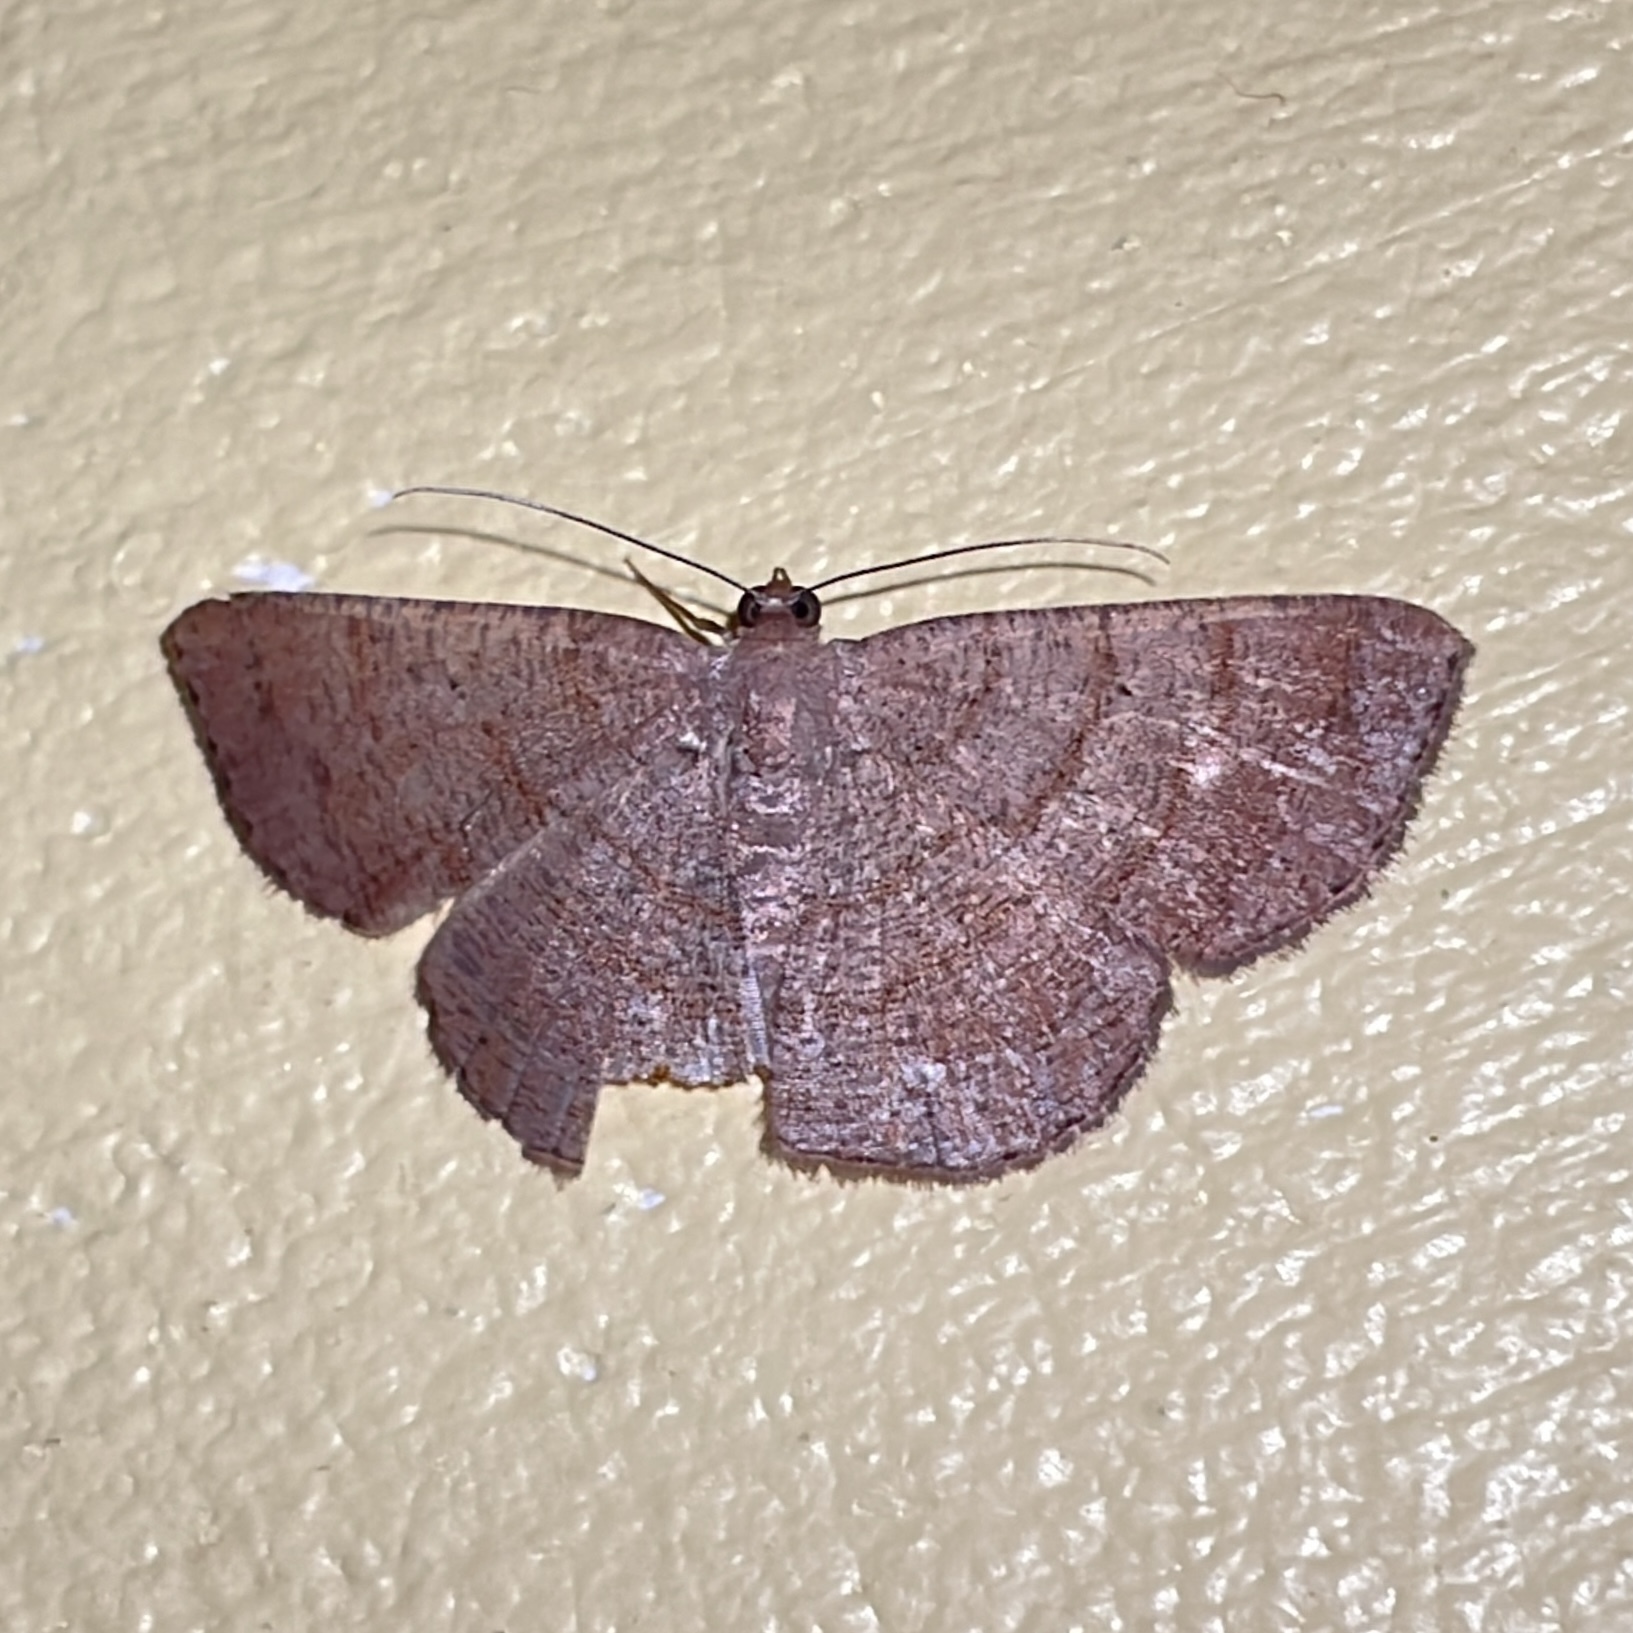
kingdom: Animalia
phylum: Arthropoda
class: Insecta
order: Lepidoptera
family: Geometridae
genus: Parilexia
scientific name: Parilexia nicetaria
